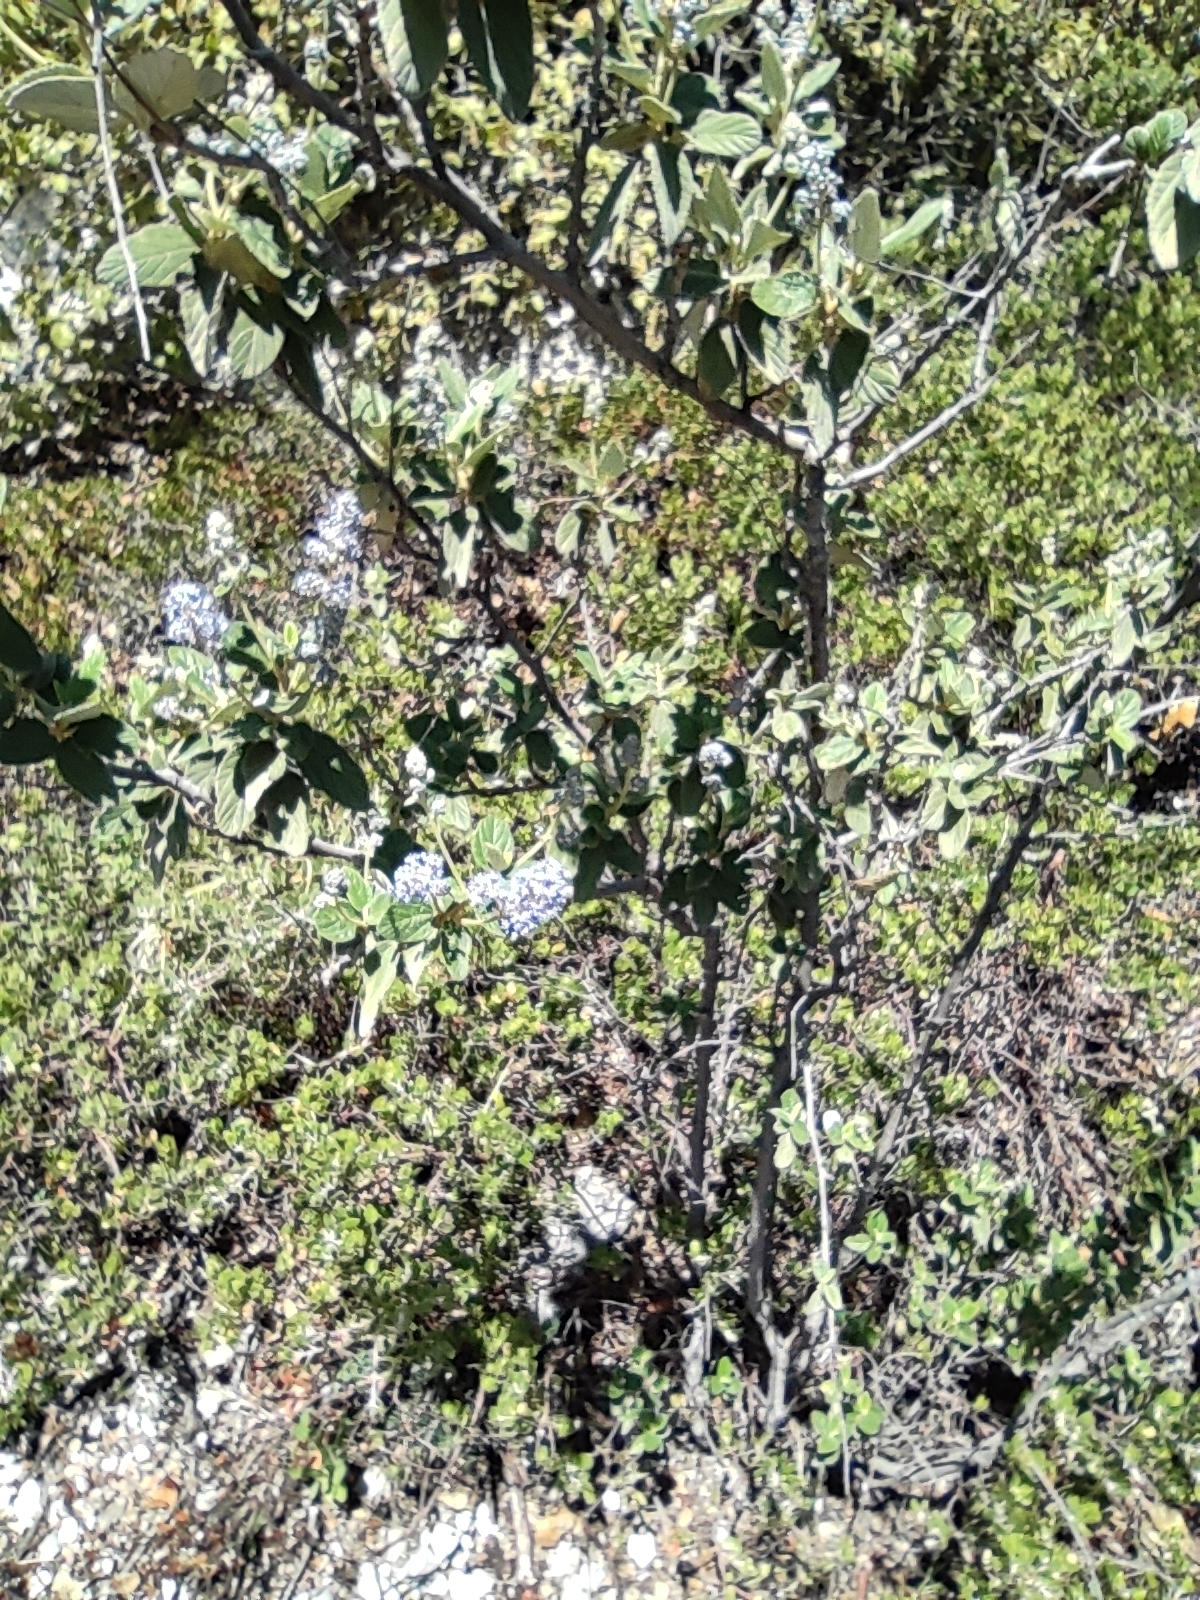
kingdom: Plantae
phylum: Tracheophyta
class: Magnoliopsida
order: Rosales
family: Rhamnaceae
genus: Ceanothus
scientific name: Ceanothus caeruleus
